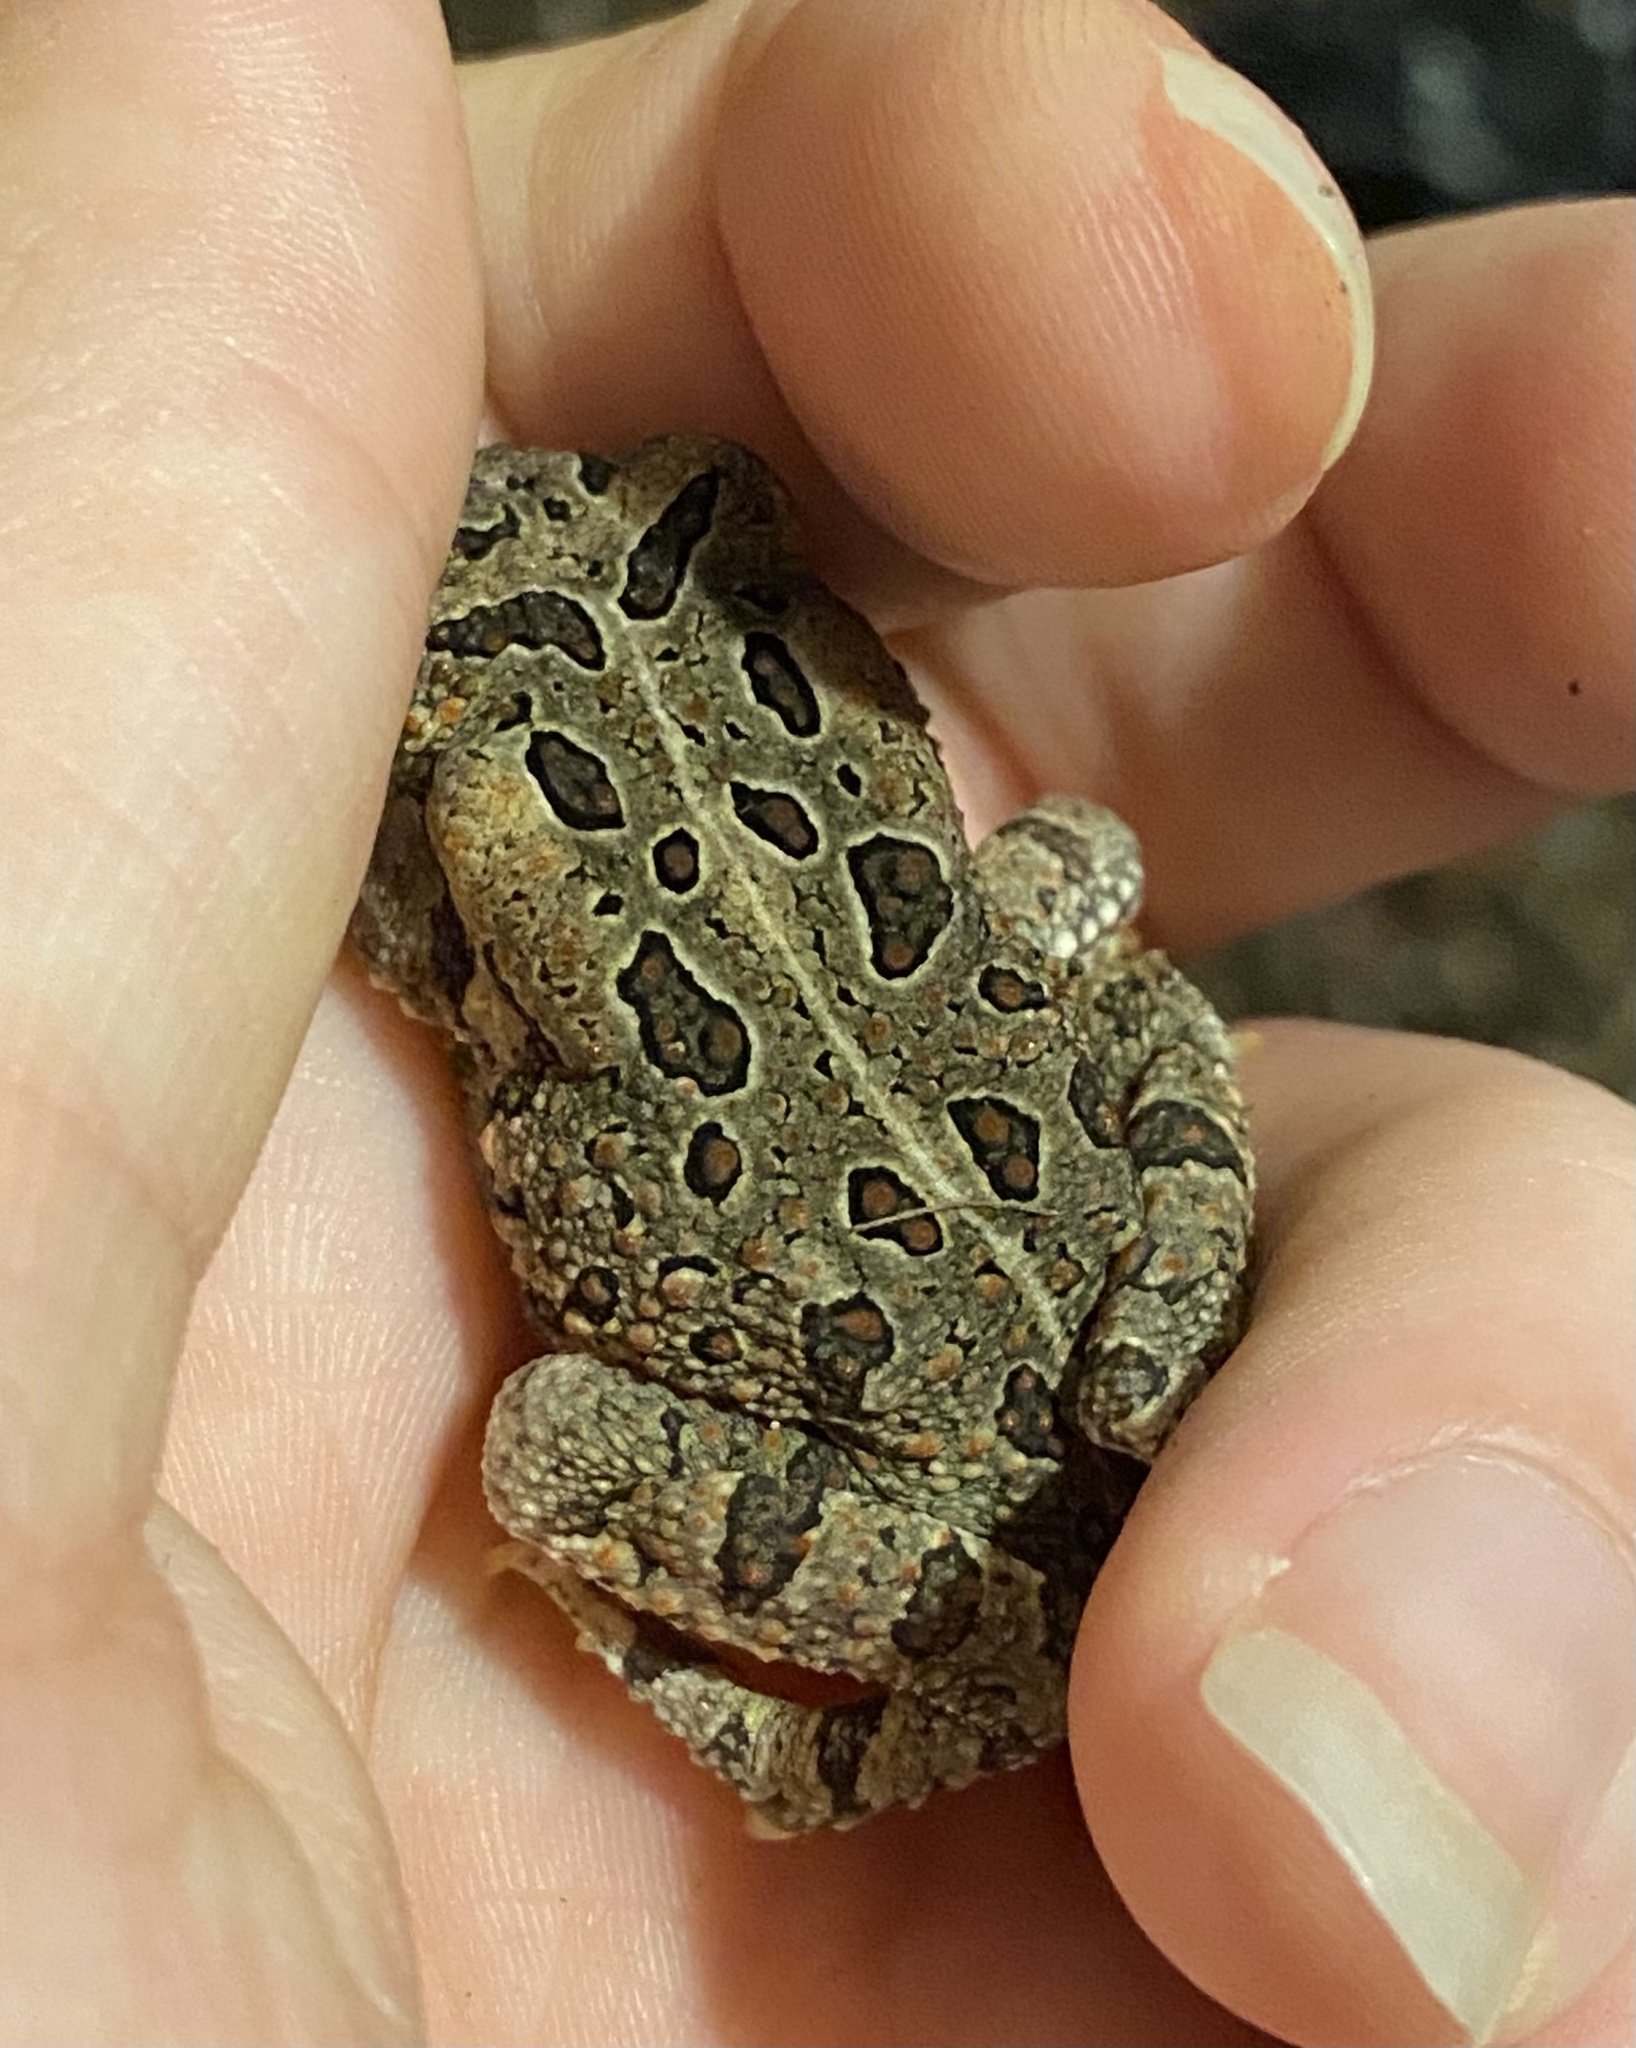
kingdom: Animalia
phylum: Chordata
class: Amphibia
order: Anura
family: Bufonidae
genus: Anaxyrus
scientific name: Anaxyrus fowleri
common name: Fowler's toad
